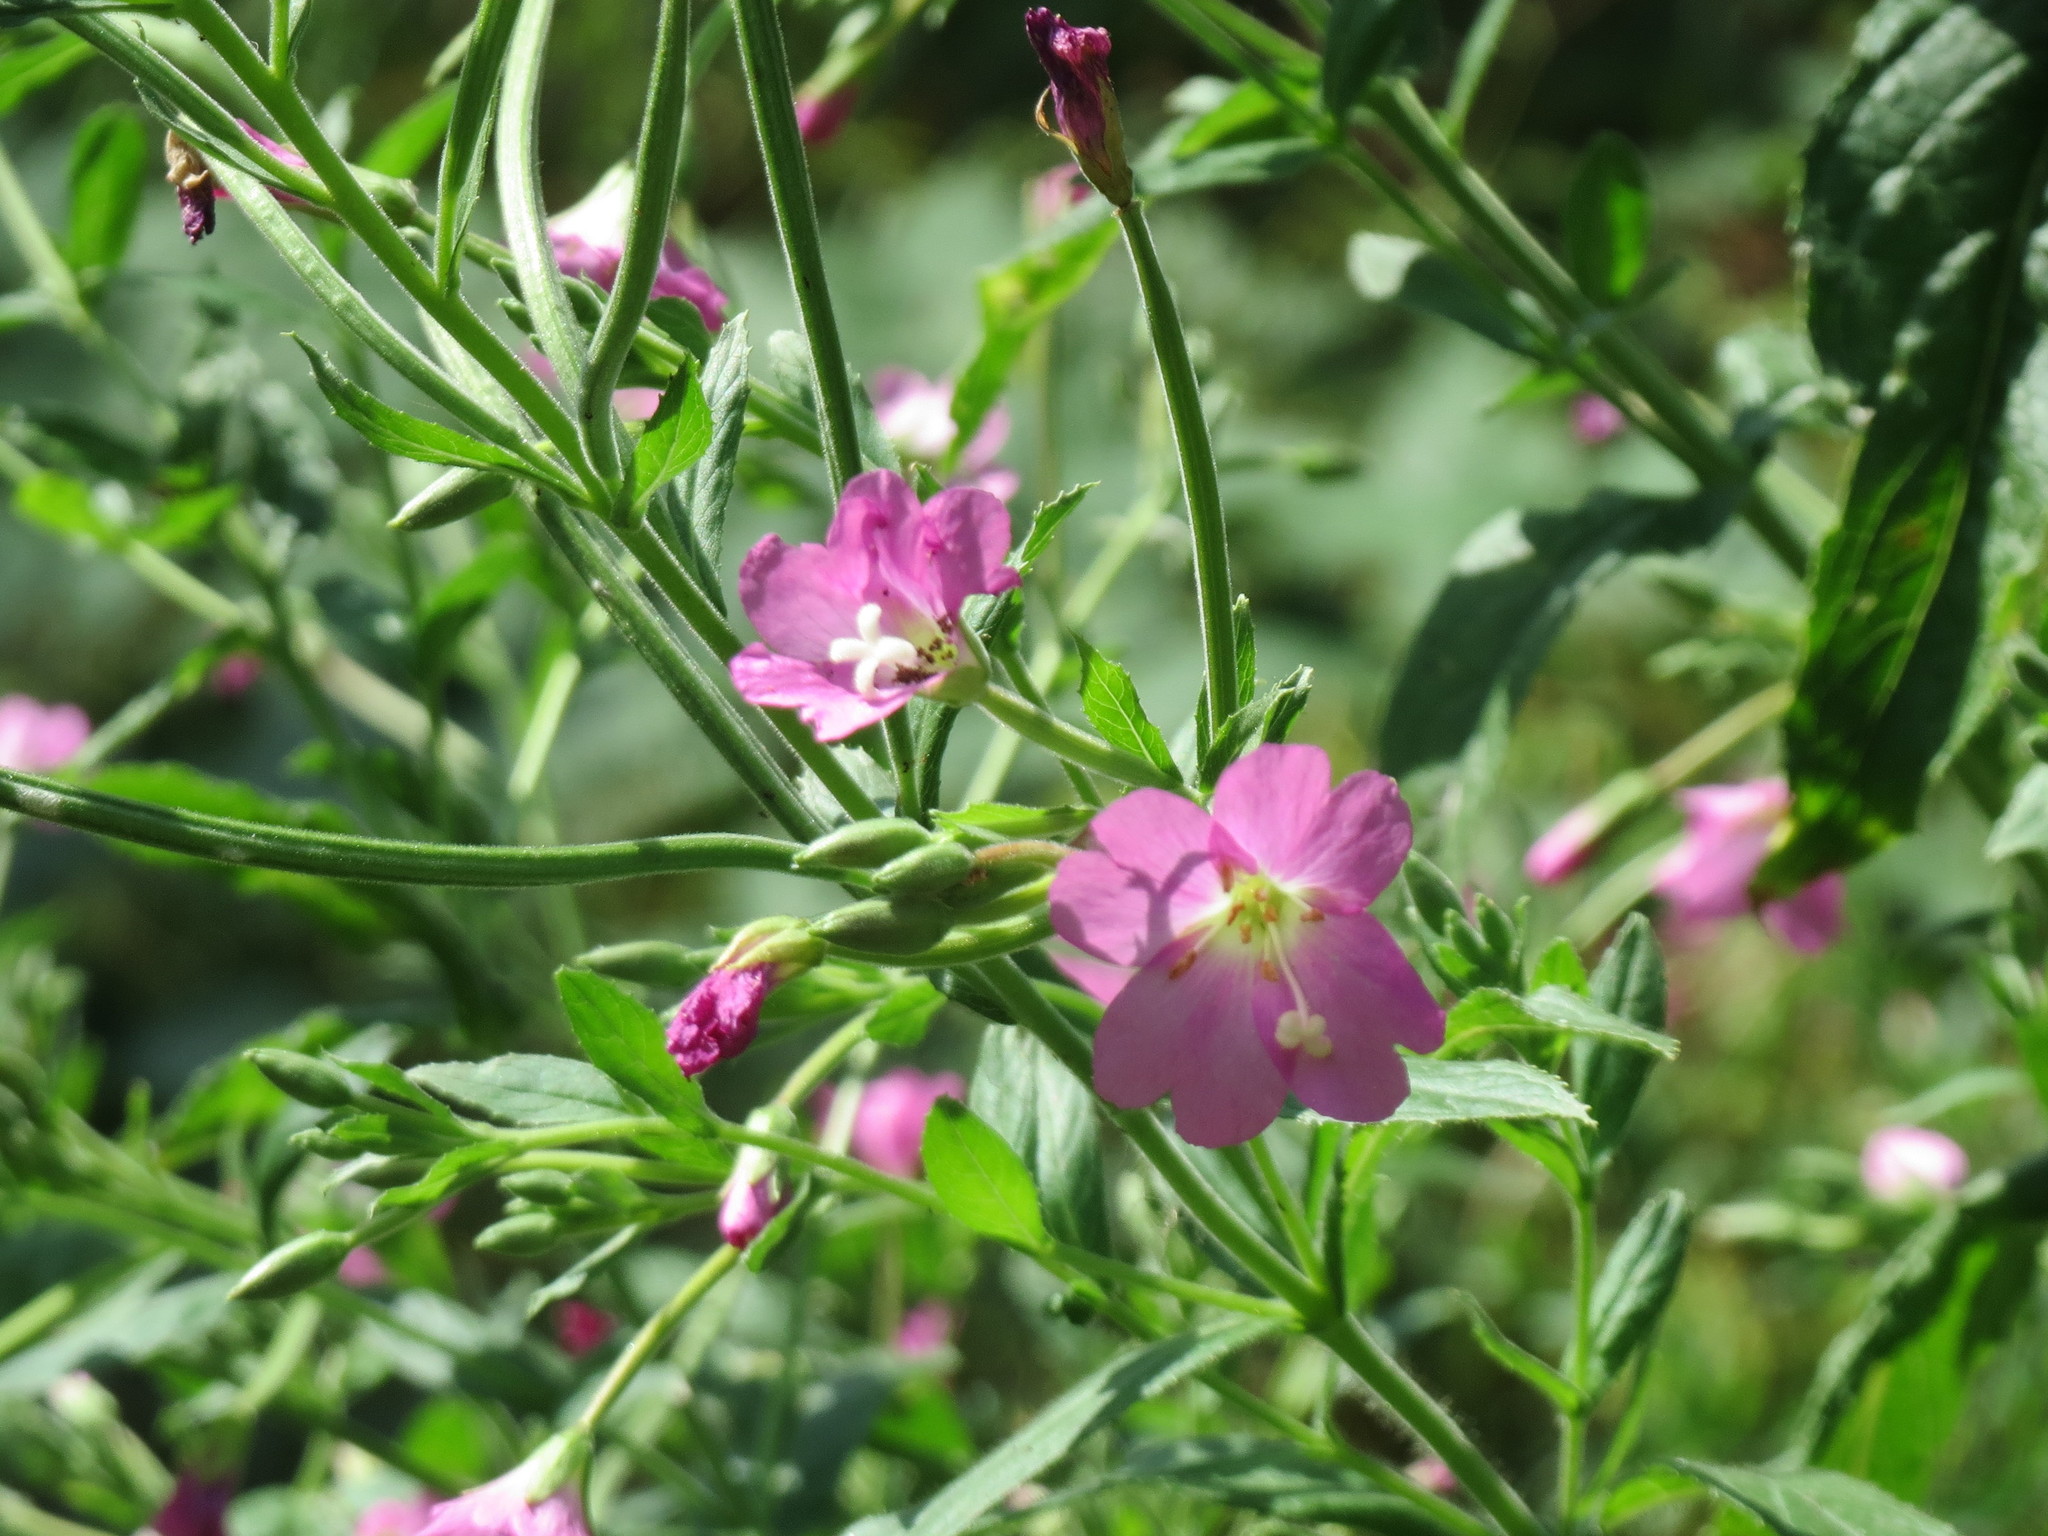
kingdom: Plantae
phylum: Tracheophyta
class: Magnoliopsida
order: Myrtales
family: Onagraceae
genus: Epilobium
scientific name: Epilobium hirsutum
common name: Great willowherb
